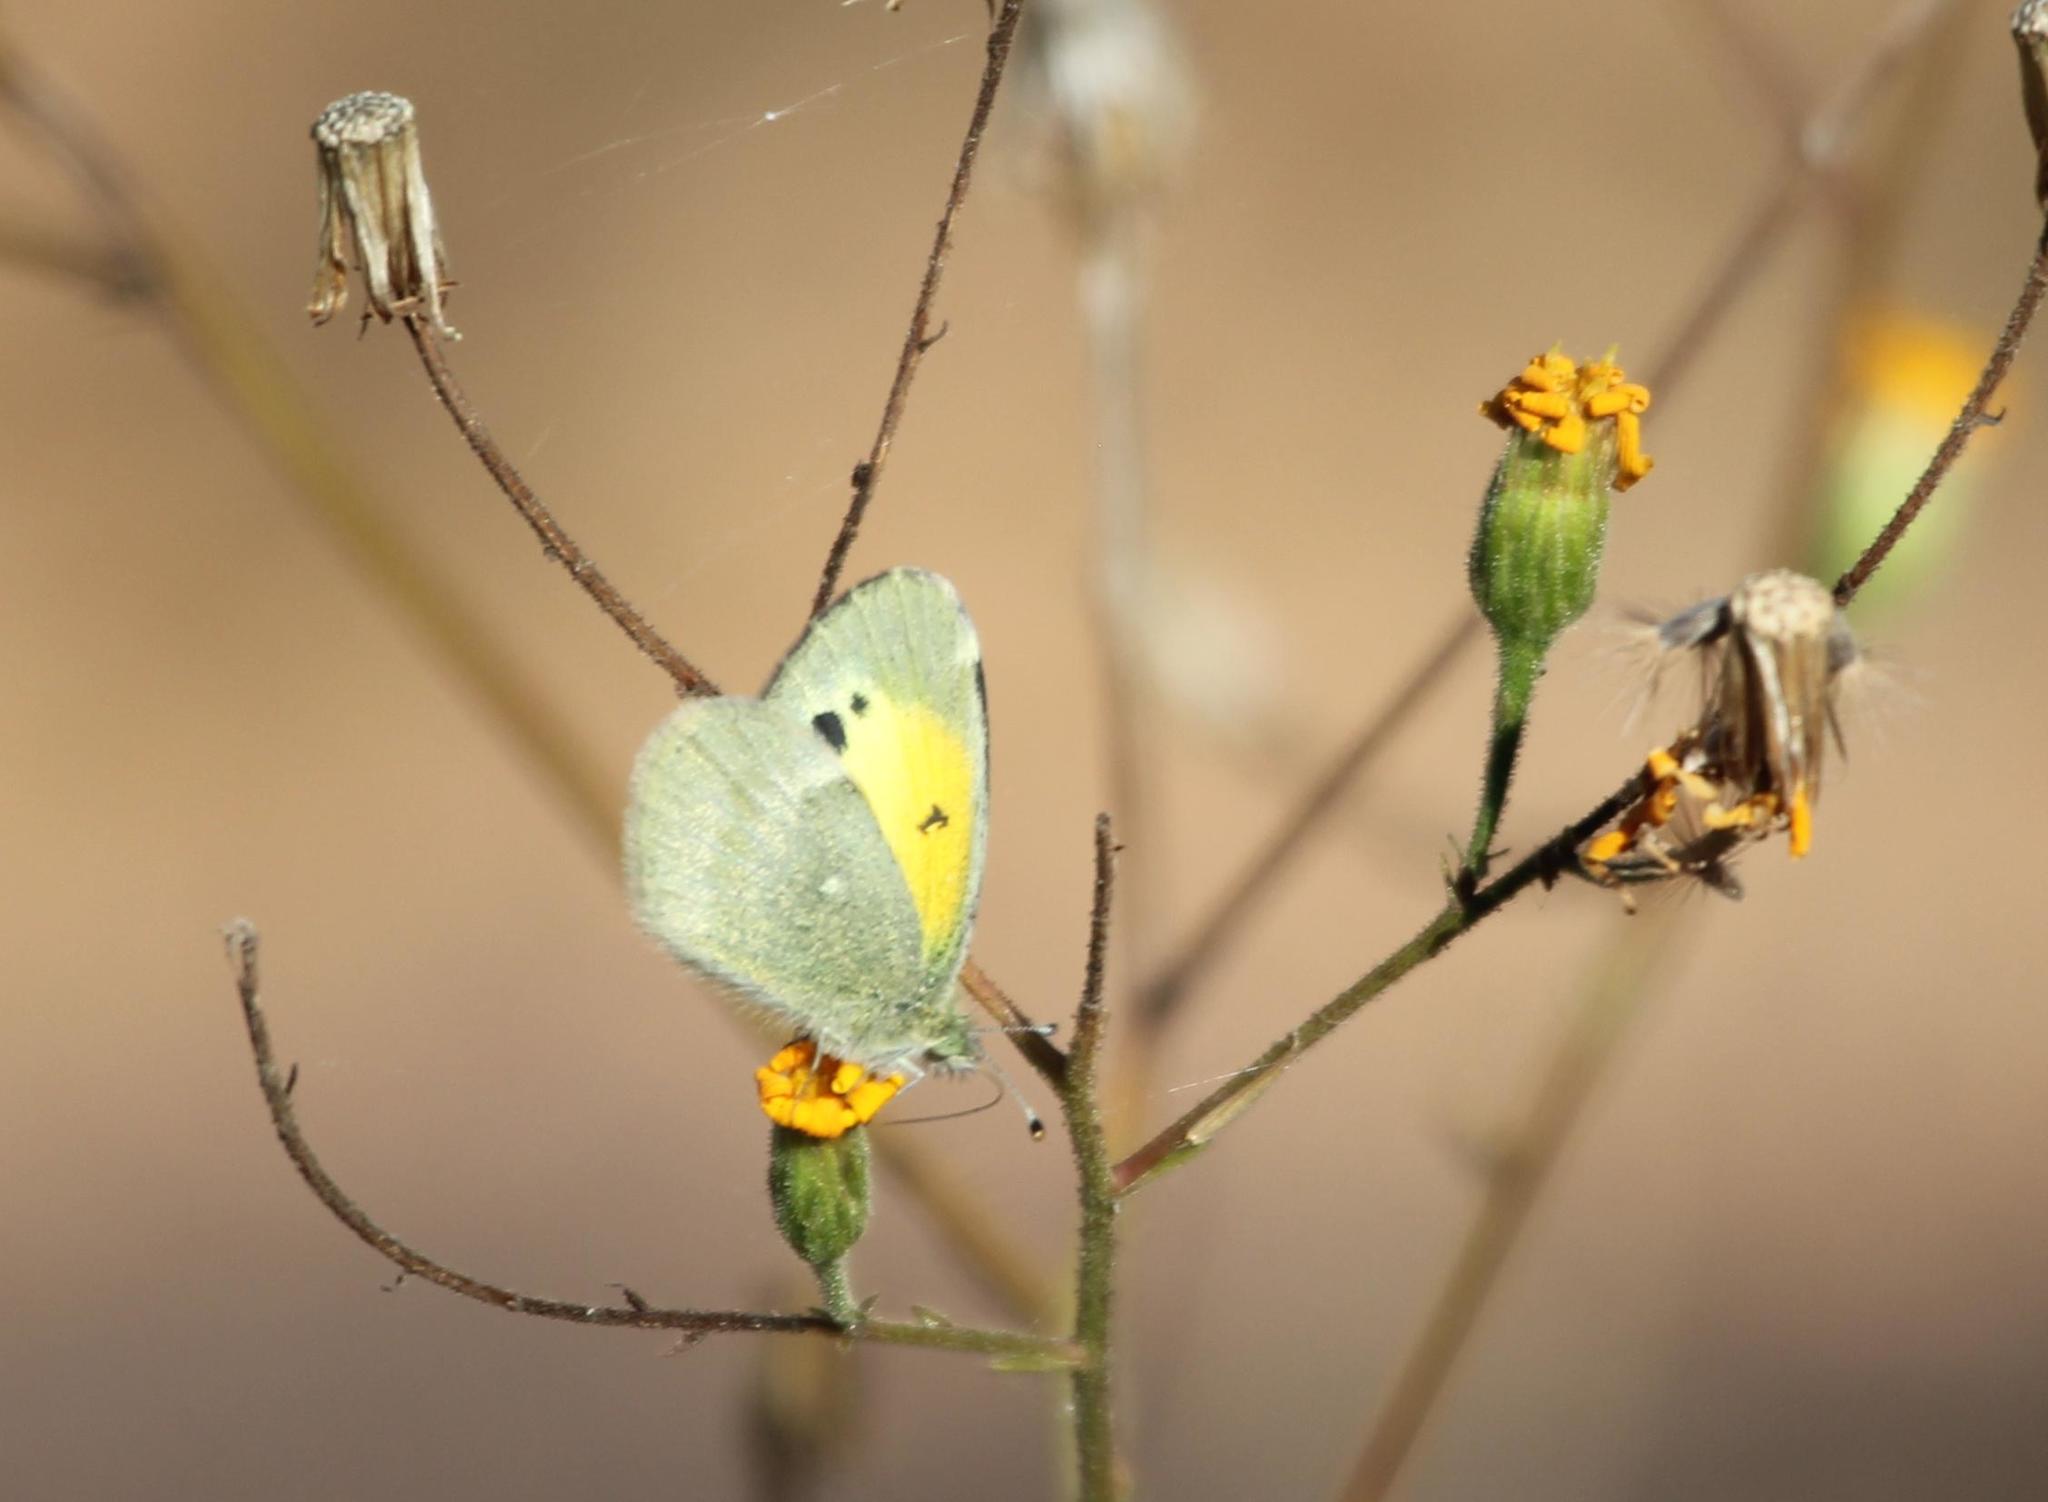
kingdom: Animalia
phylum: Arthropoda
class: Insecta
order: Lepidoptera
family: Pieridae
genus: Nathalis
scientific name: Nathalis iole
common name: Dainty sulphur
